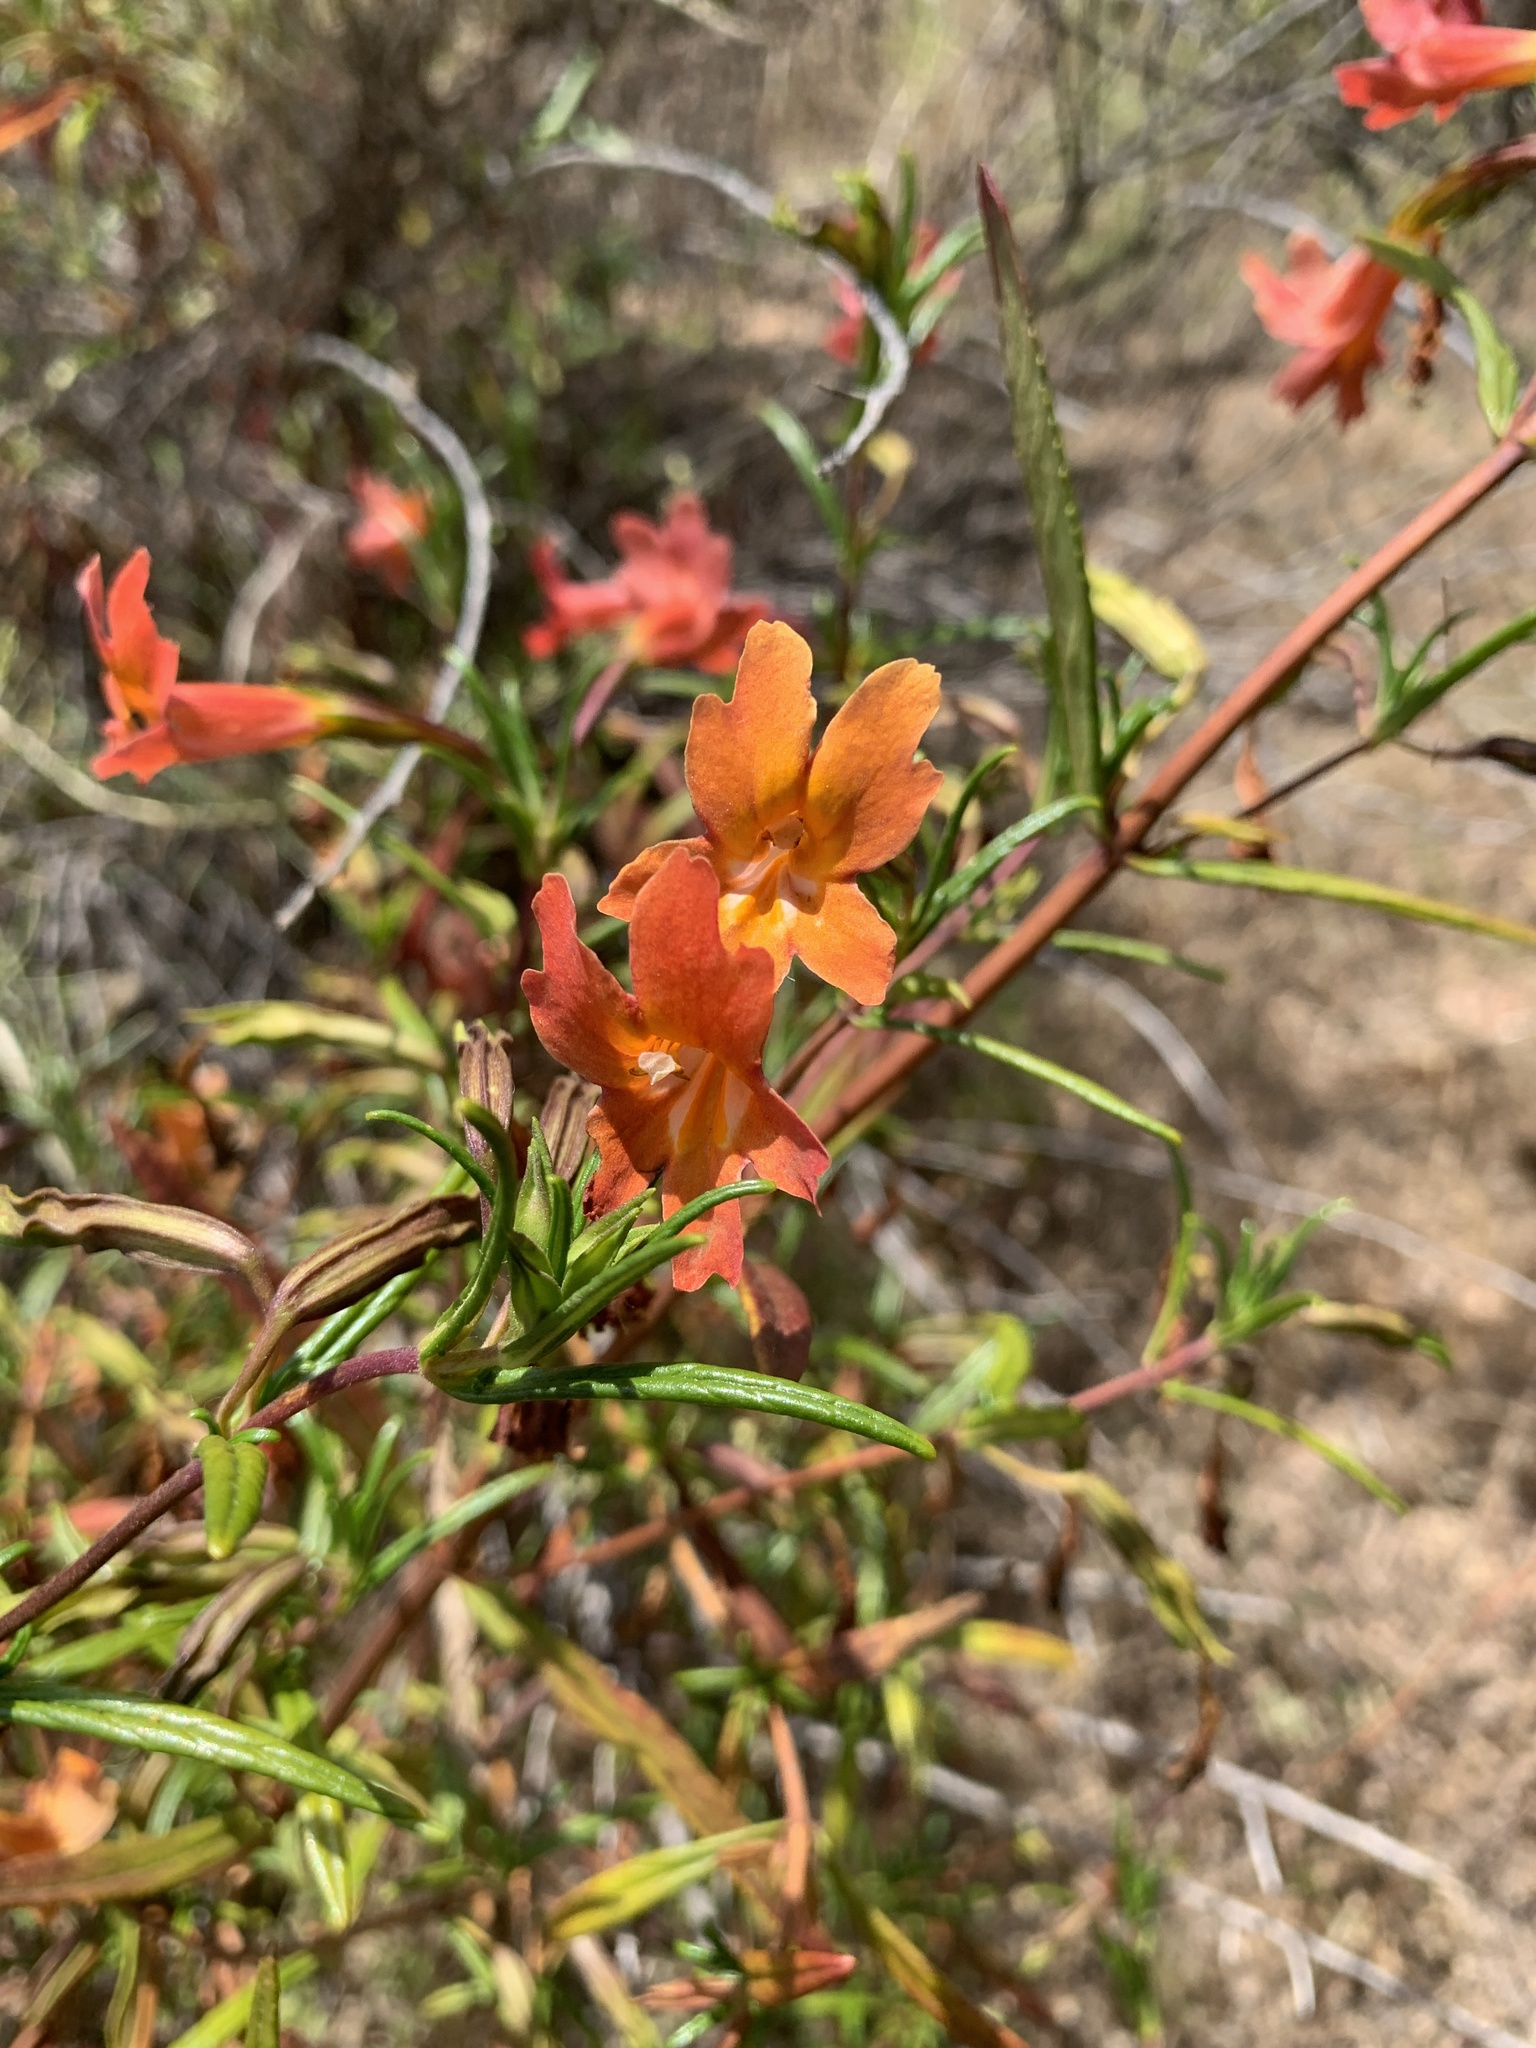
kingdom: Plantae
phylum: Tracheophyta
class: Magnoliopsida
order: Lamiales
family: Phrymaceae
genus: Diplacus
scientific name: Diplacus puniceus
